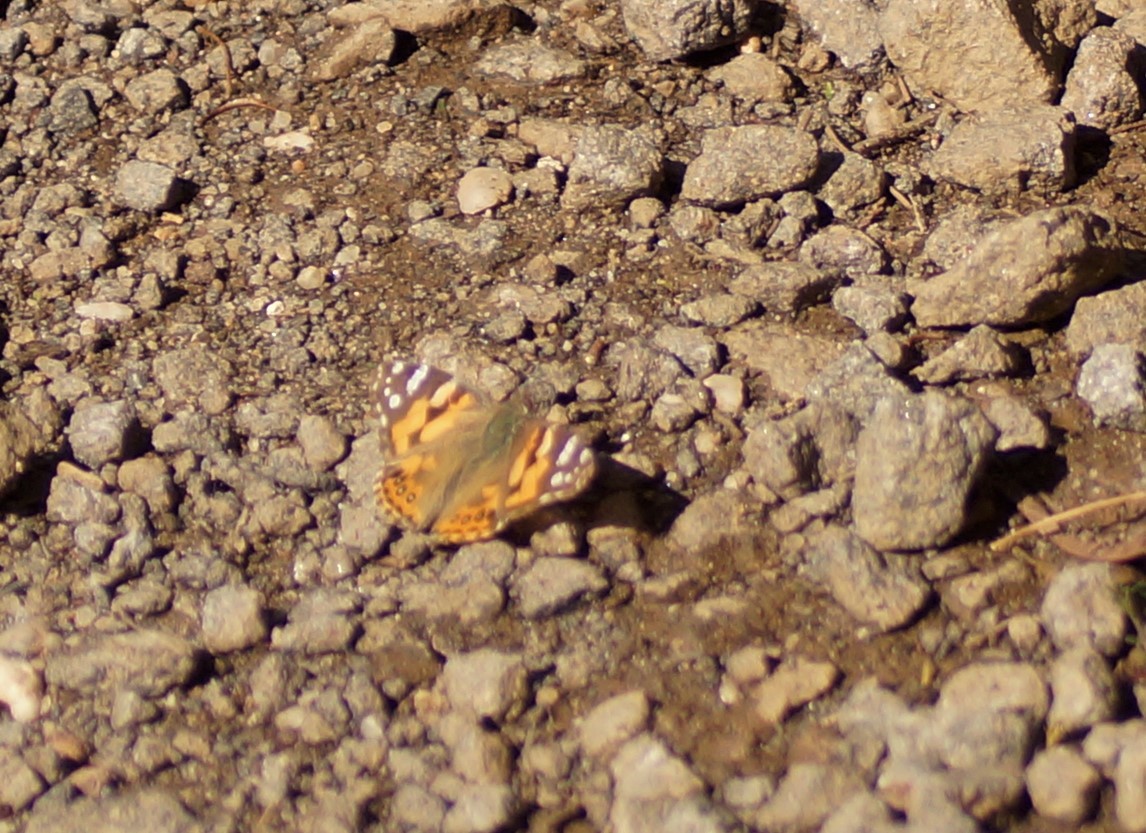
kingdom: Animalia
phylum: Arthropoda
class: Insecta
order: Lepidoptera
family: Nymphalidae
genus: Vanessa
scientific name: Vanessa kershawi
